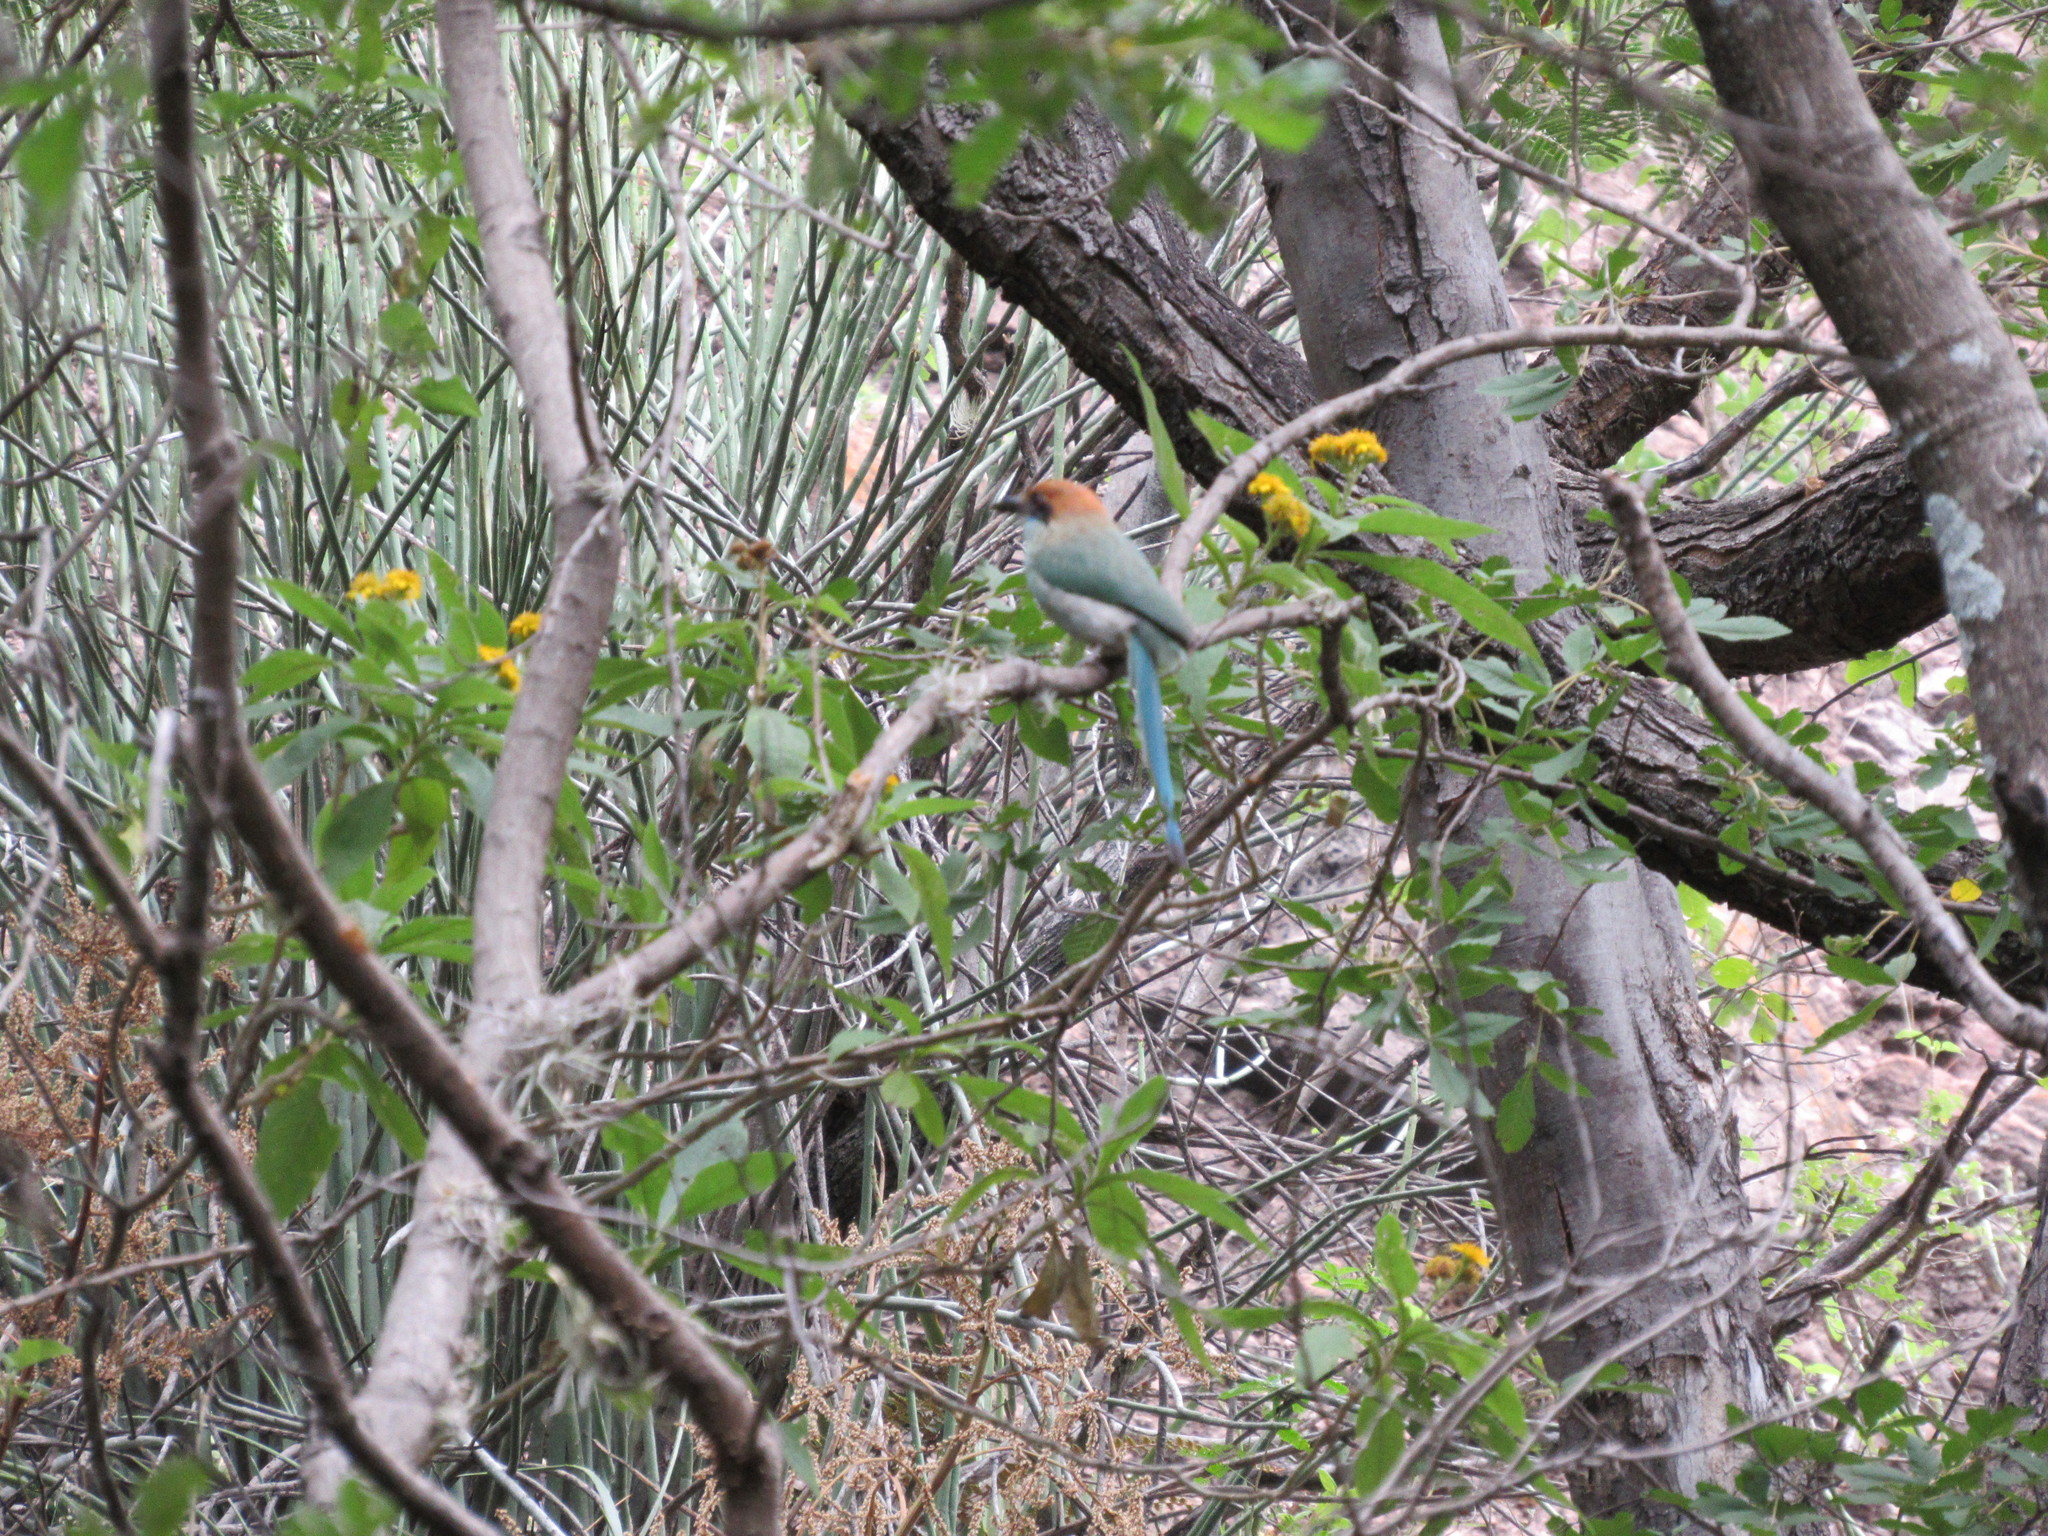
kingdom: Animalia
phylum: Chordata
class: Aves
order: Coraciiformes
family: Momotidae
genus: Momotus
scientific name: Momotus mexicanus
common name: Russet-crowned motmot
